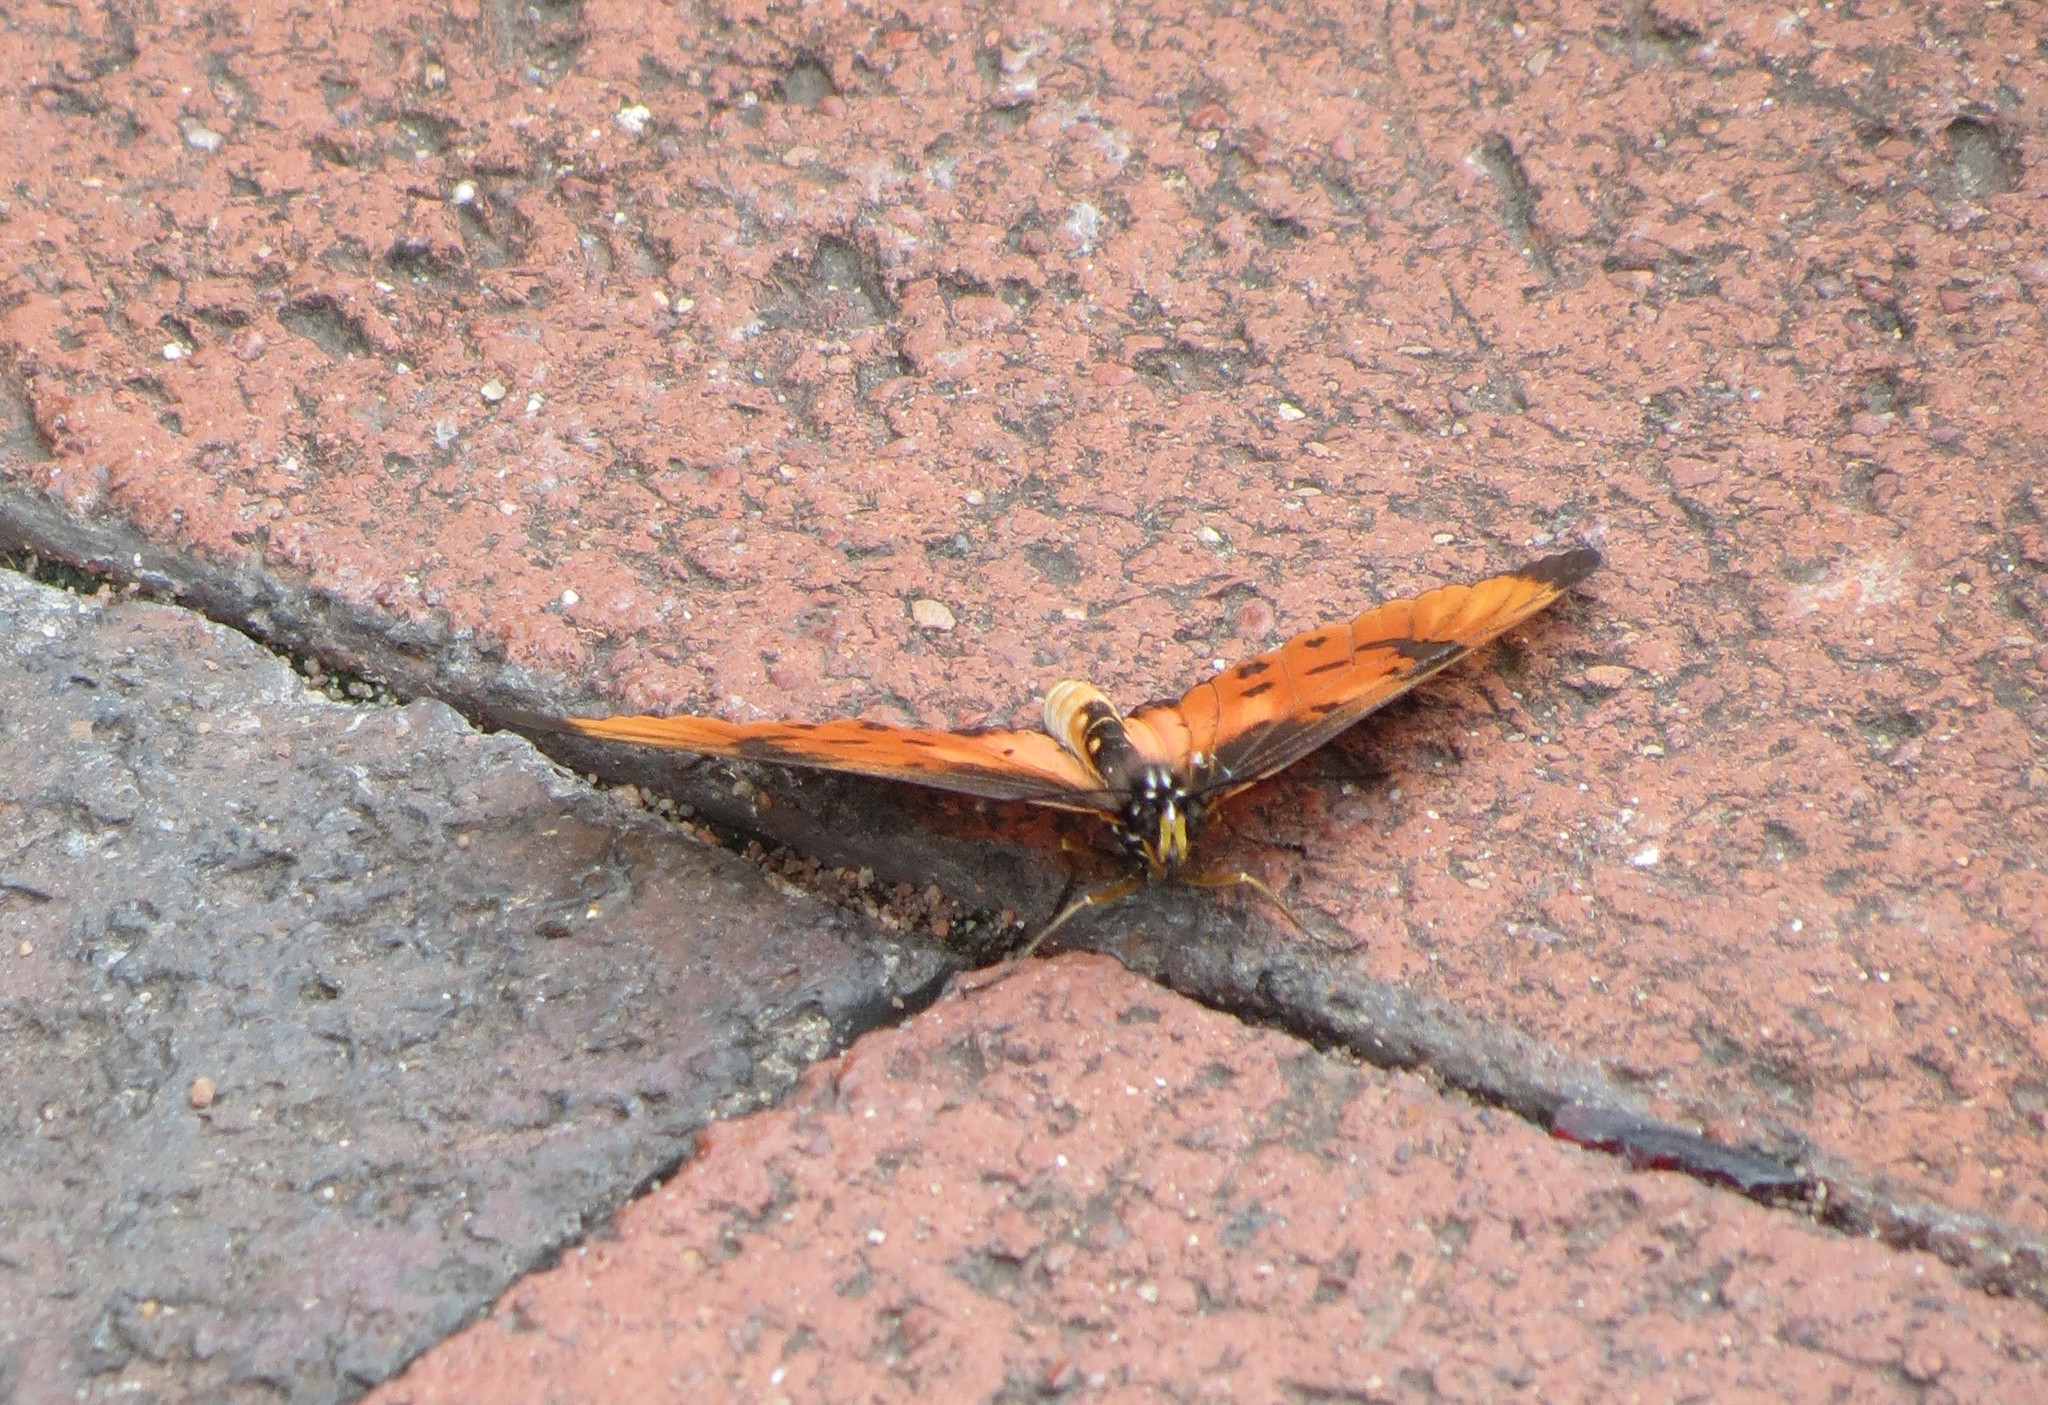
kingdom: Animalia
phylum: Arthropoda
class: Insecta
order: Lepidoptera
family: Nymphalidae
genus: Stephenia
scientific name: Stephenia
